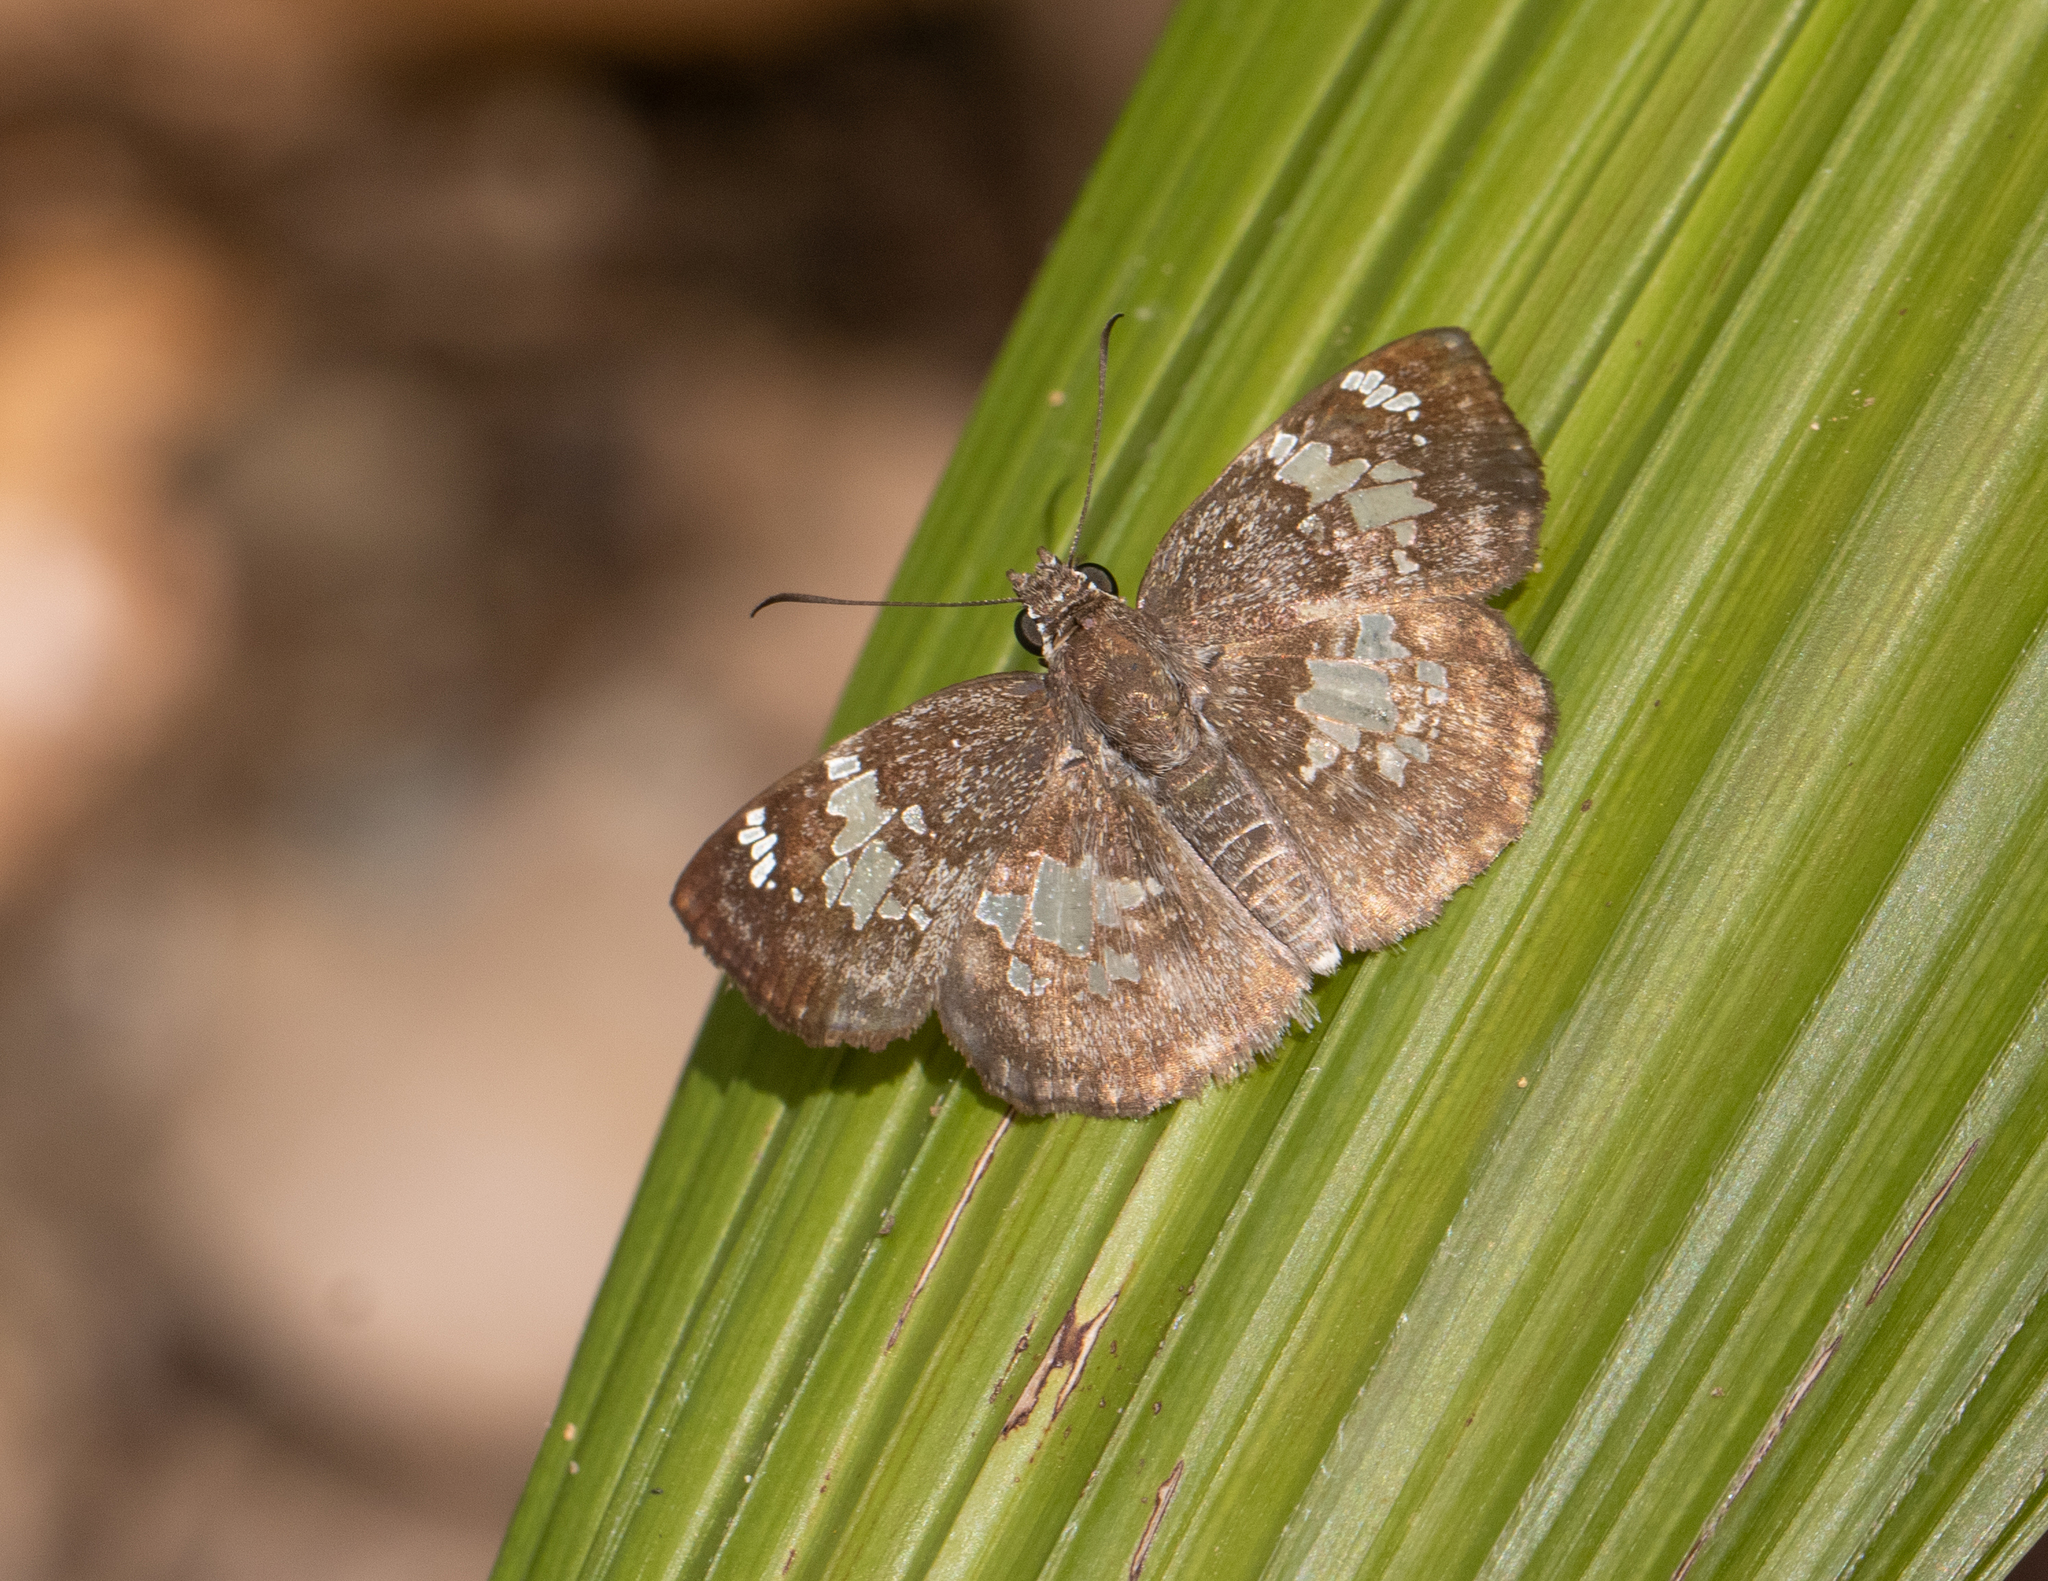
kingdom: Animalia
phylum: Arthropoda
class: Insecta
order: Lepidoptera
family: Hesperiidae
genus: Xenophanes
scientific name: Xenophanes tryxus
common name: Glassy-winged skipper
